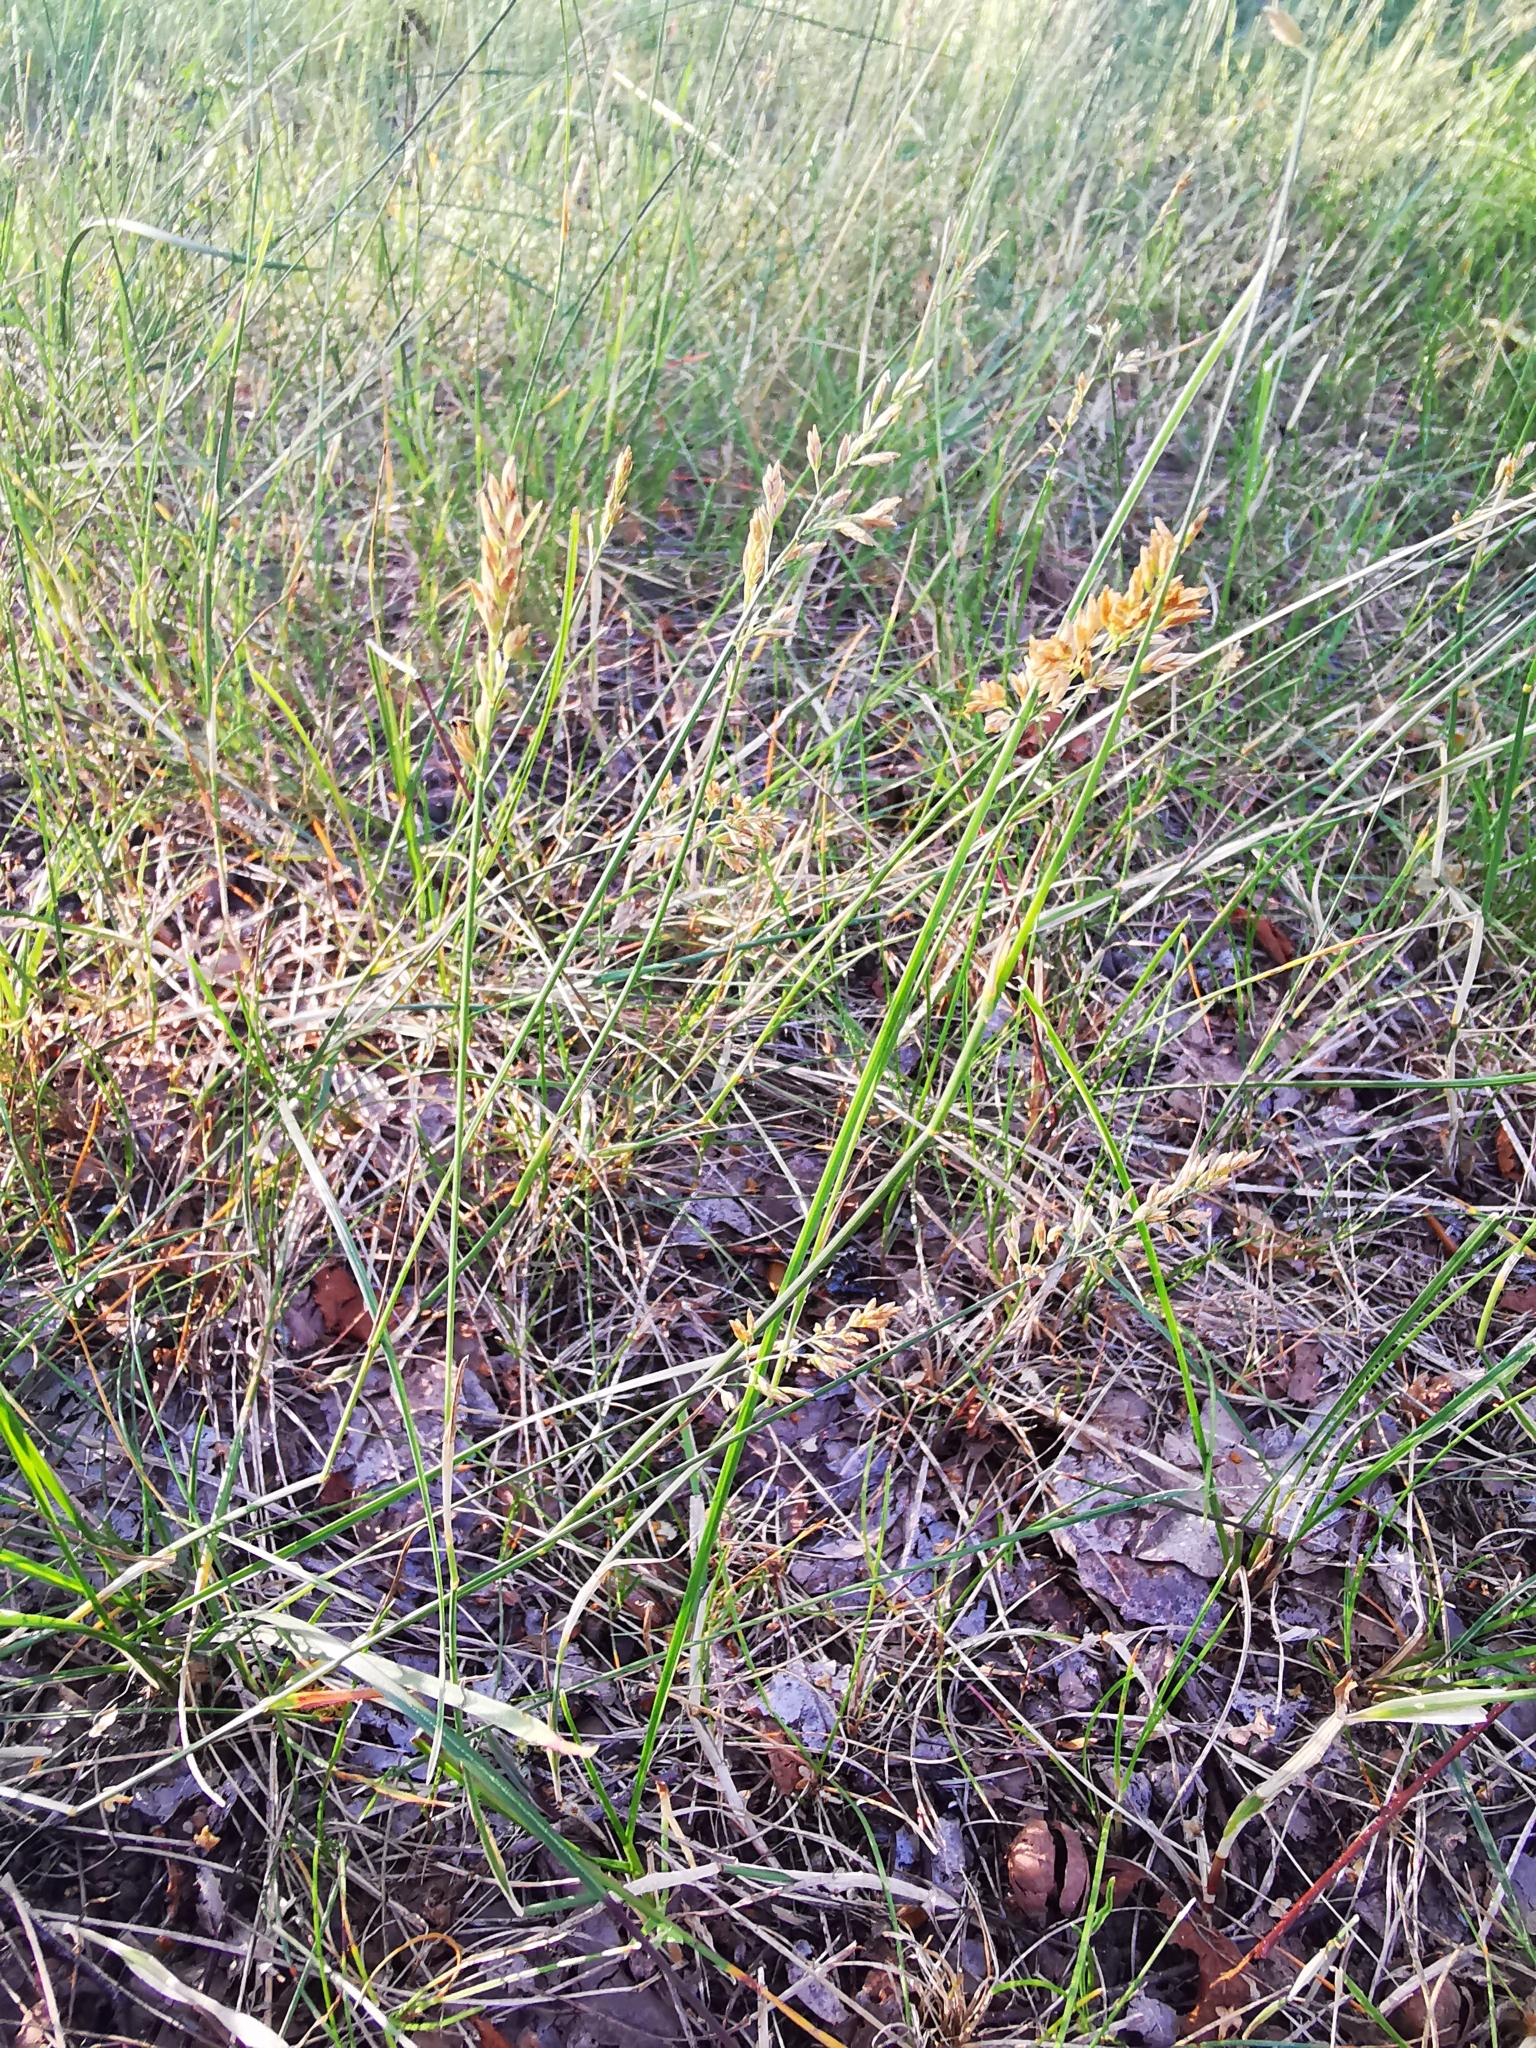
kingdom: Plantae
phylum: Tracheophyta
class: Liliopsida
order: Poales
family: Poaceae
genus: Poa
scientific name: Poa compressa
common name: Canada bluegrass
